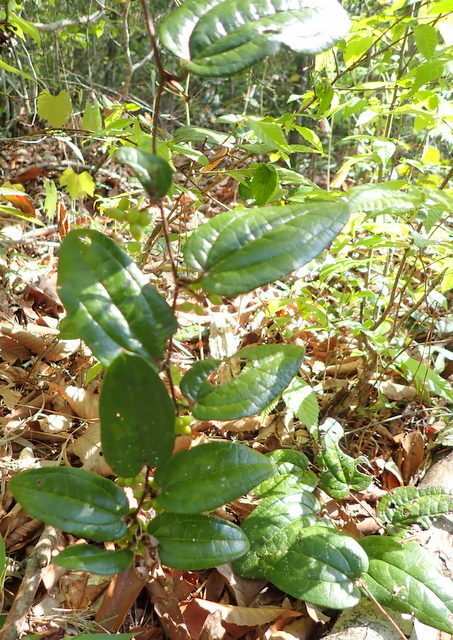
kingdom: Plantae
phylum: Tracheophyta
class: Liliopsida
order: Liliales
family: Smilacaceae
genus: Smilax
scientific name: Smilax pumila
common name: Sarsaparilla-vine
